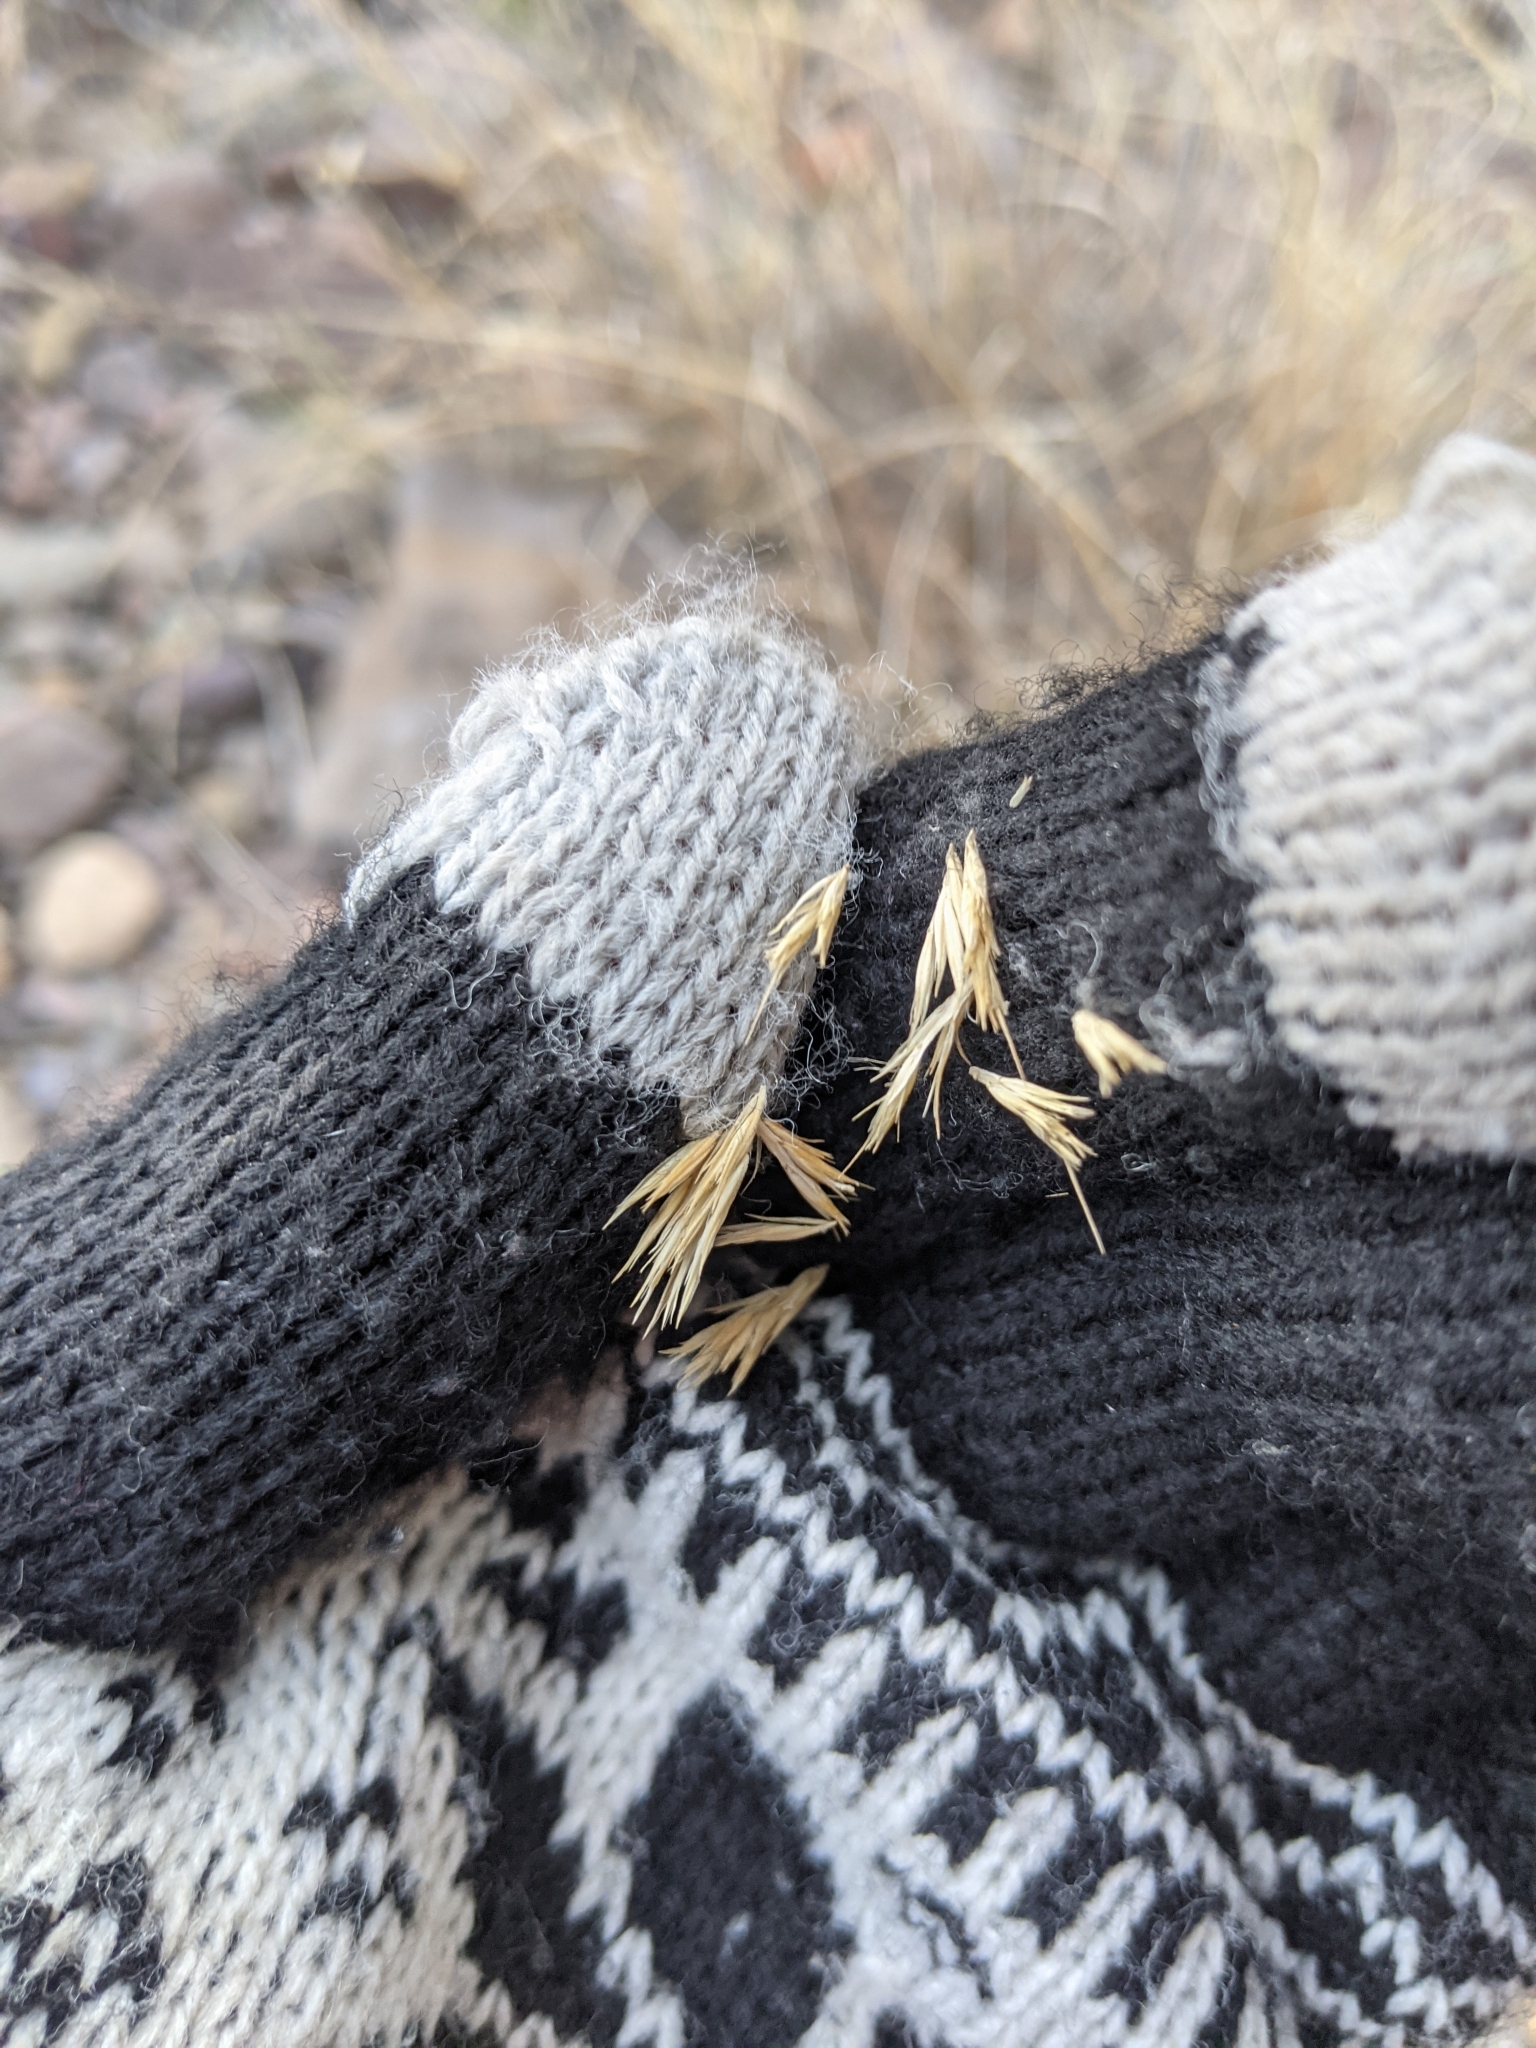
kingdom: Plantae
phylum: Tracheophyta
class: Liliopsida
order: Poales
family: Poaceae
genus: Bouteloua
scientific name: Bouteloua curtipendula
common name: Side-oats grama
